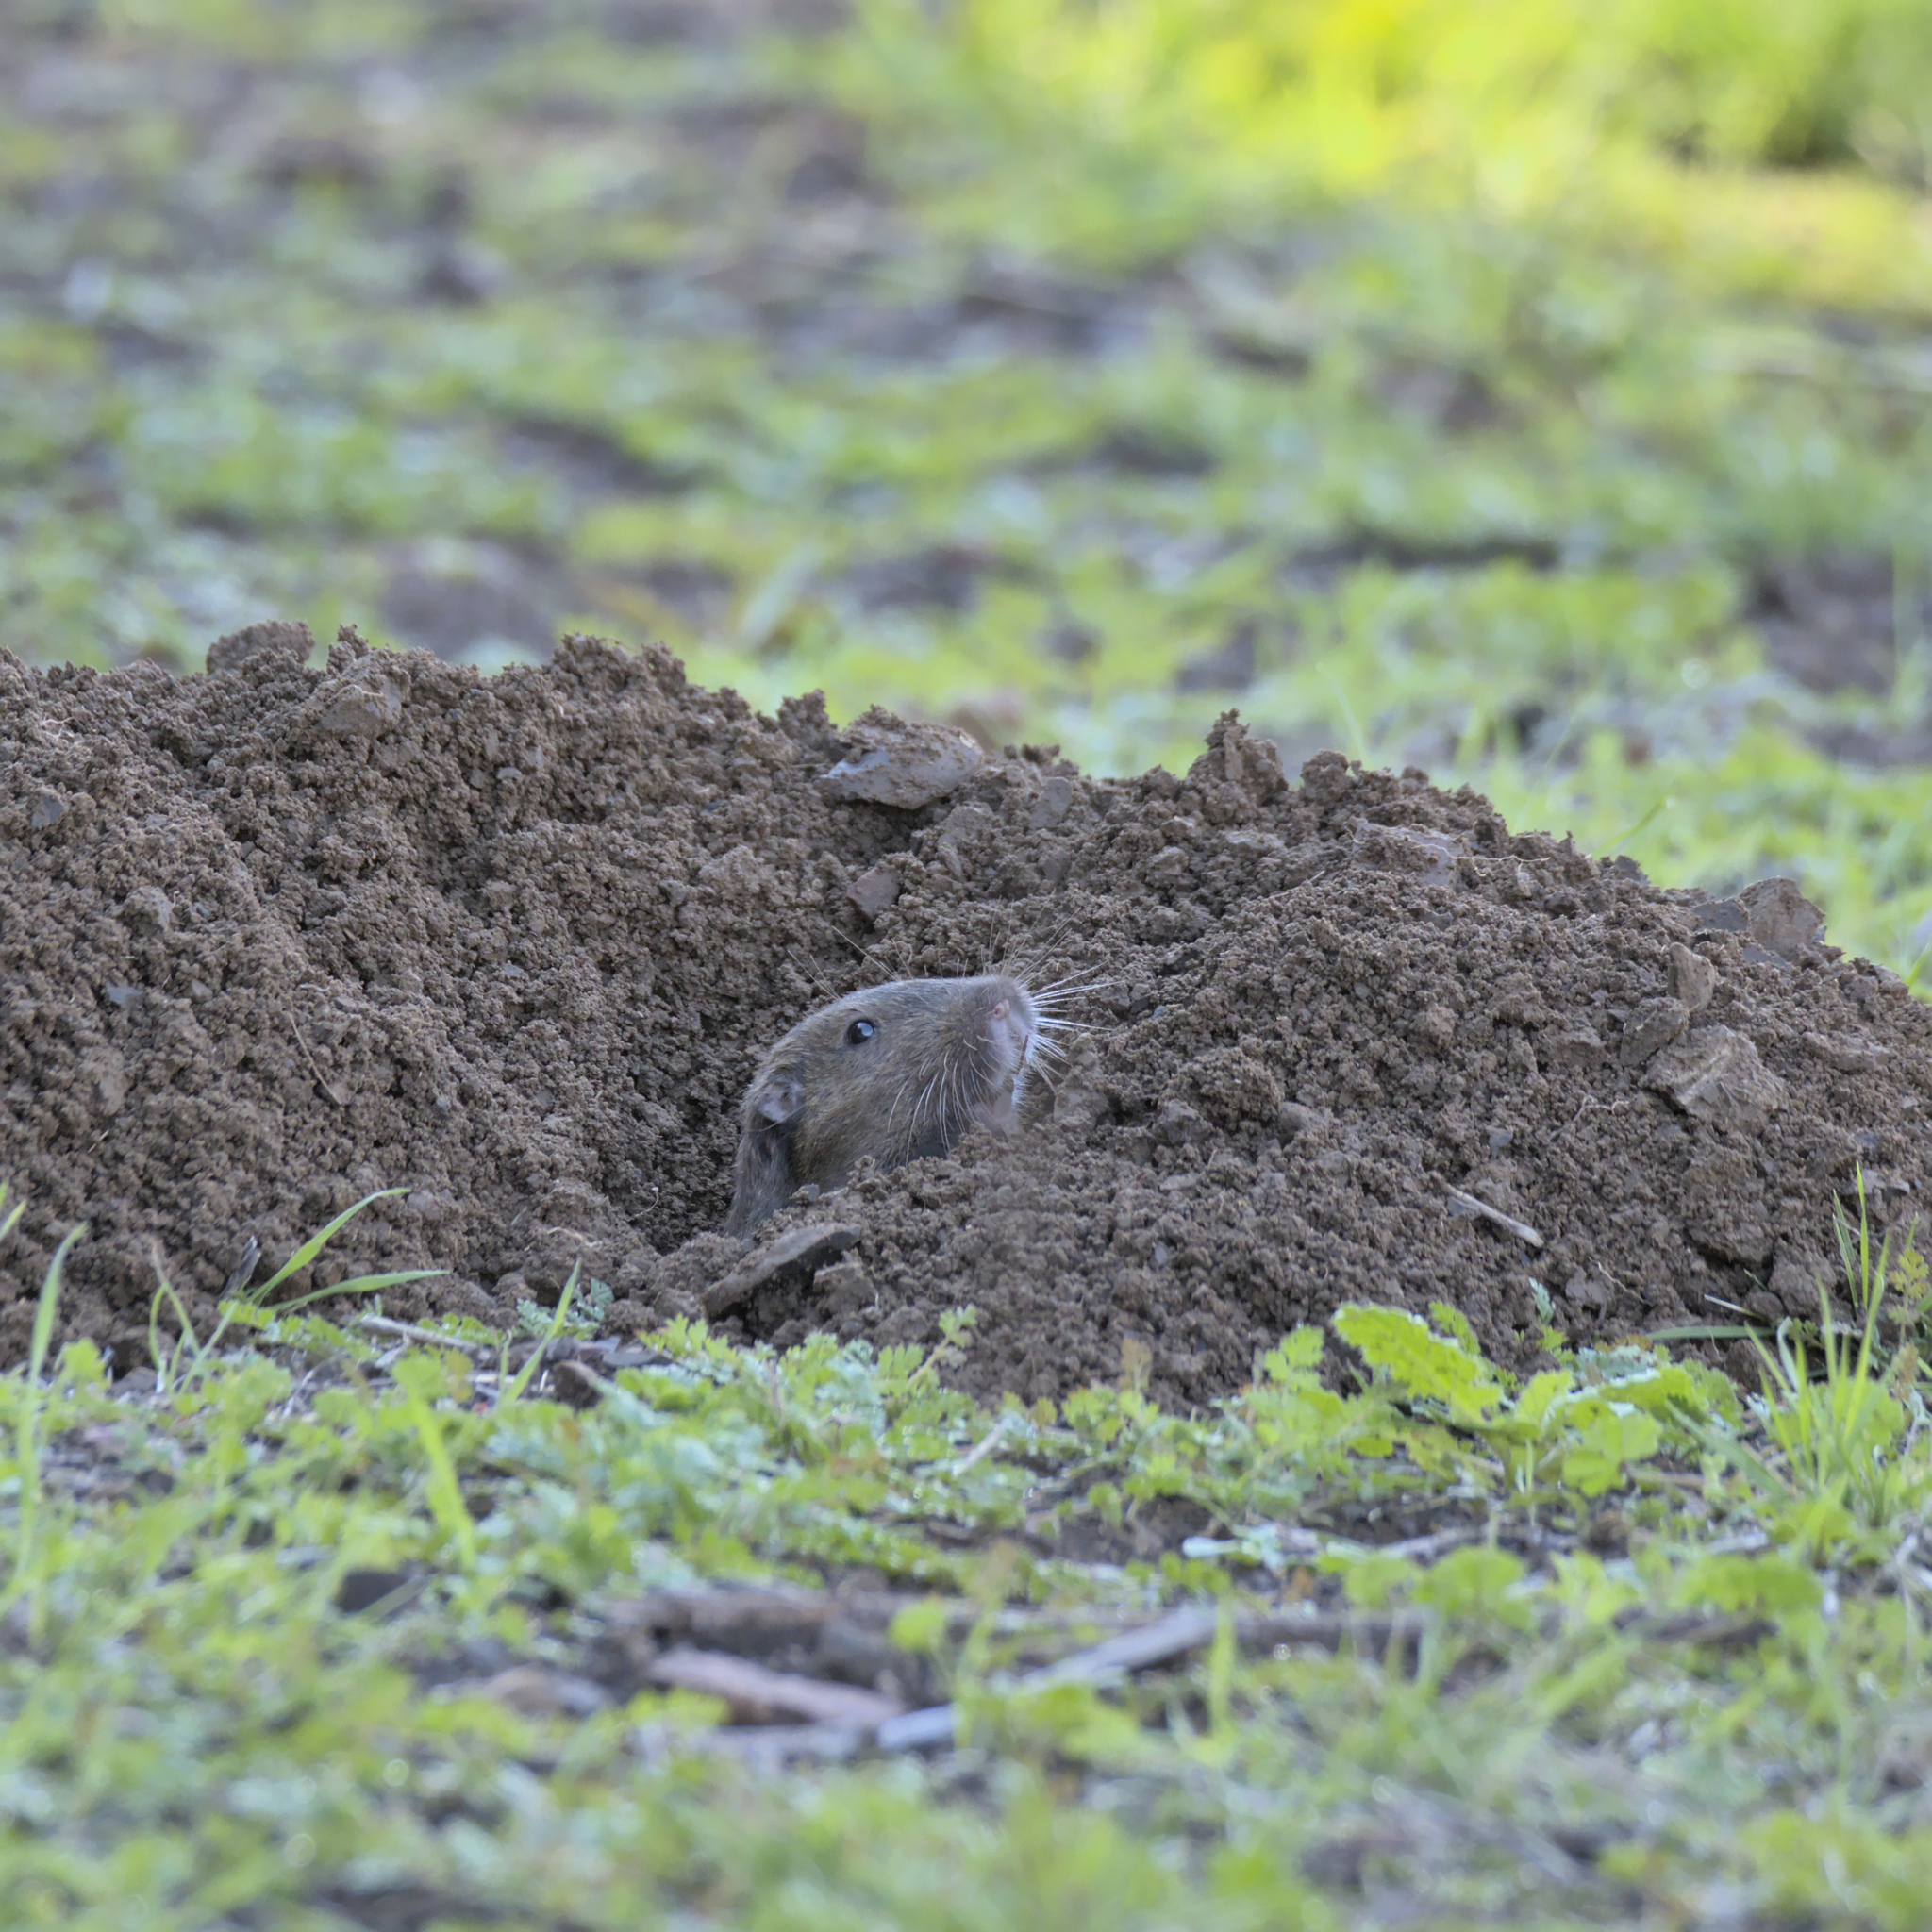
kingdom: Animalia
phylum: Chordata
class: Mammalia
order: Rodentia
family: Geomyidae
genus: Thomomys
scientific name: Thomomys bottae
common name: Botta's pocket gopher
